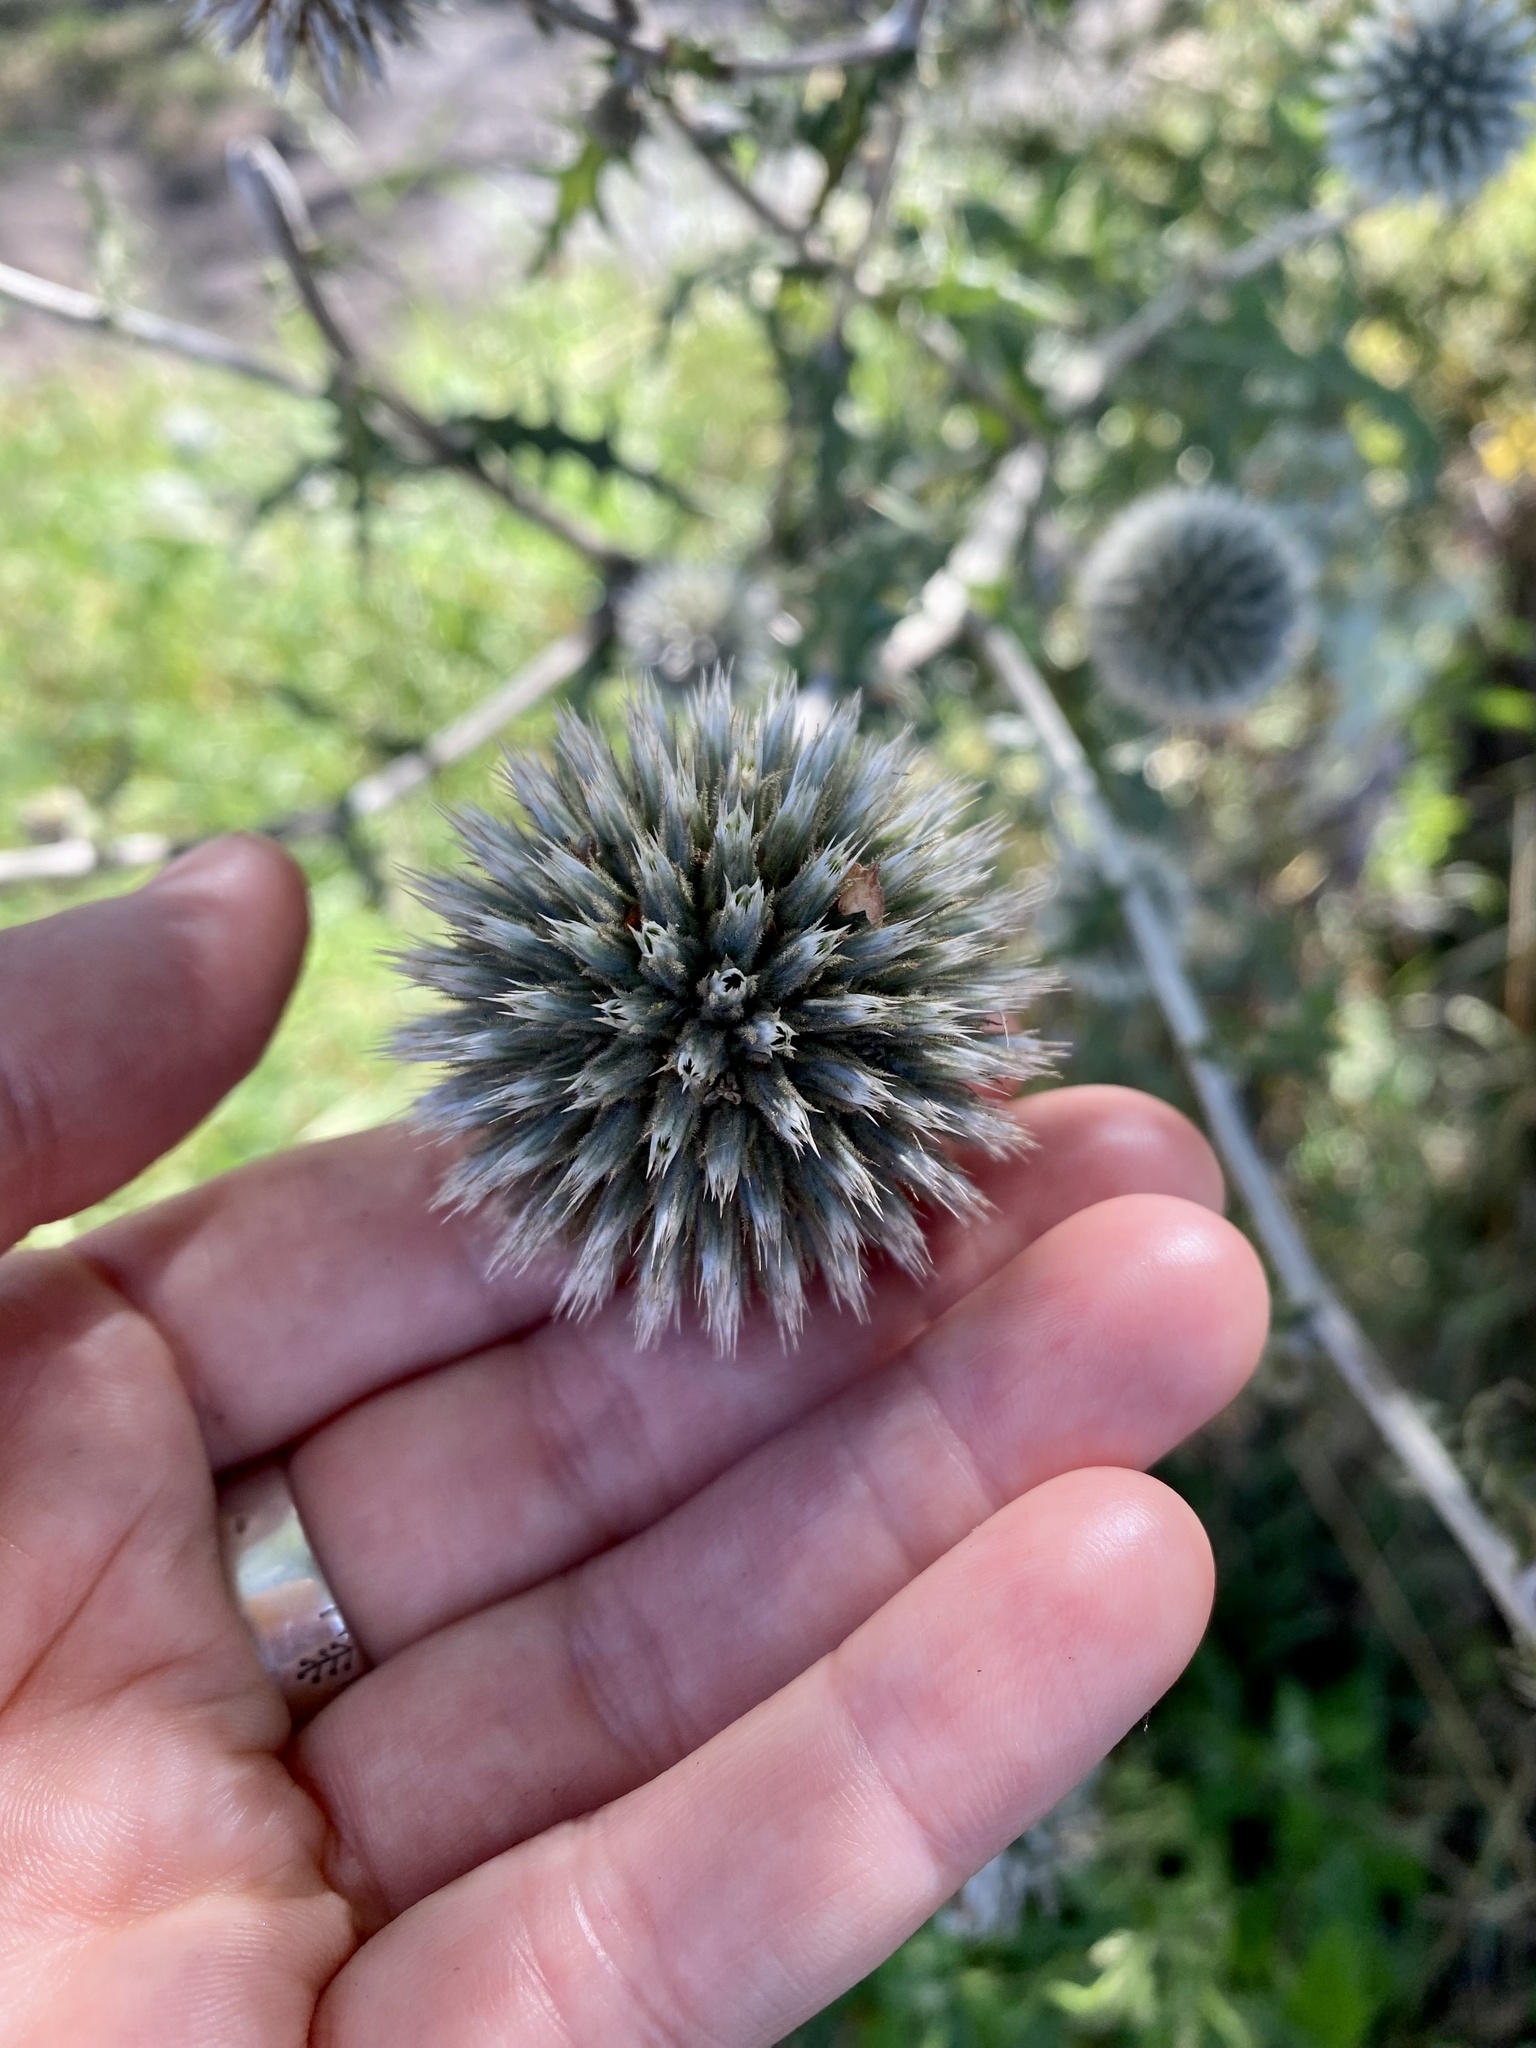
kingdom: Plantae
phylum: Tracheophyta
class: Magnoliopsida
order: Asterales
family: Asteraceae
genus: Echinops
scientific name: Echinops sphaerocephalus
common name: Glandular globe-thistle
